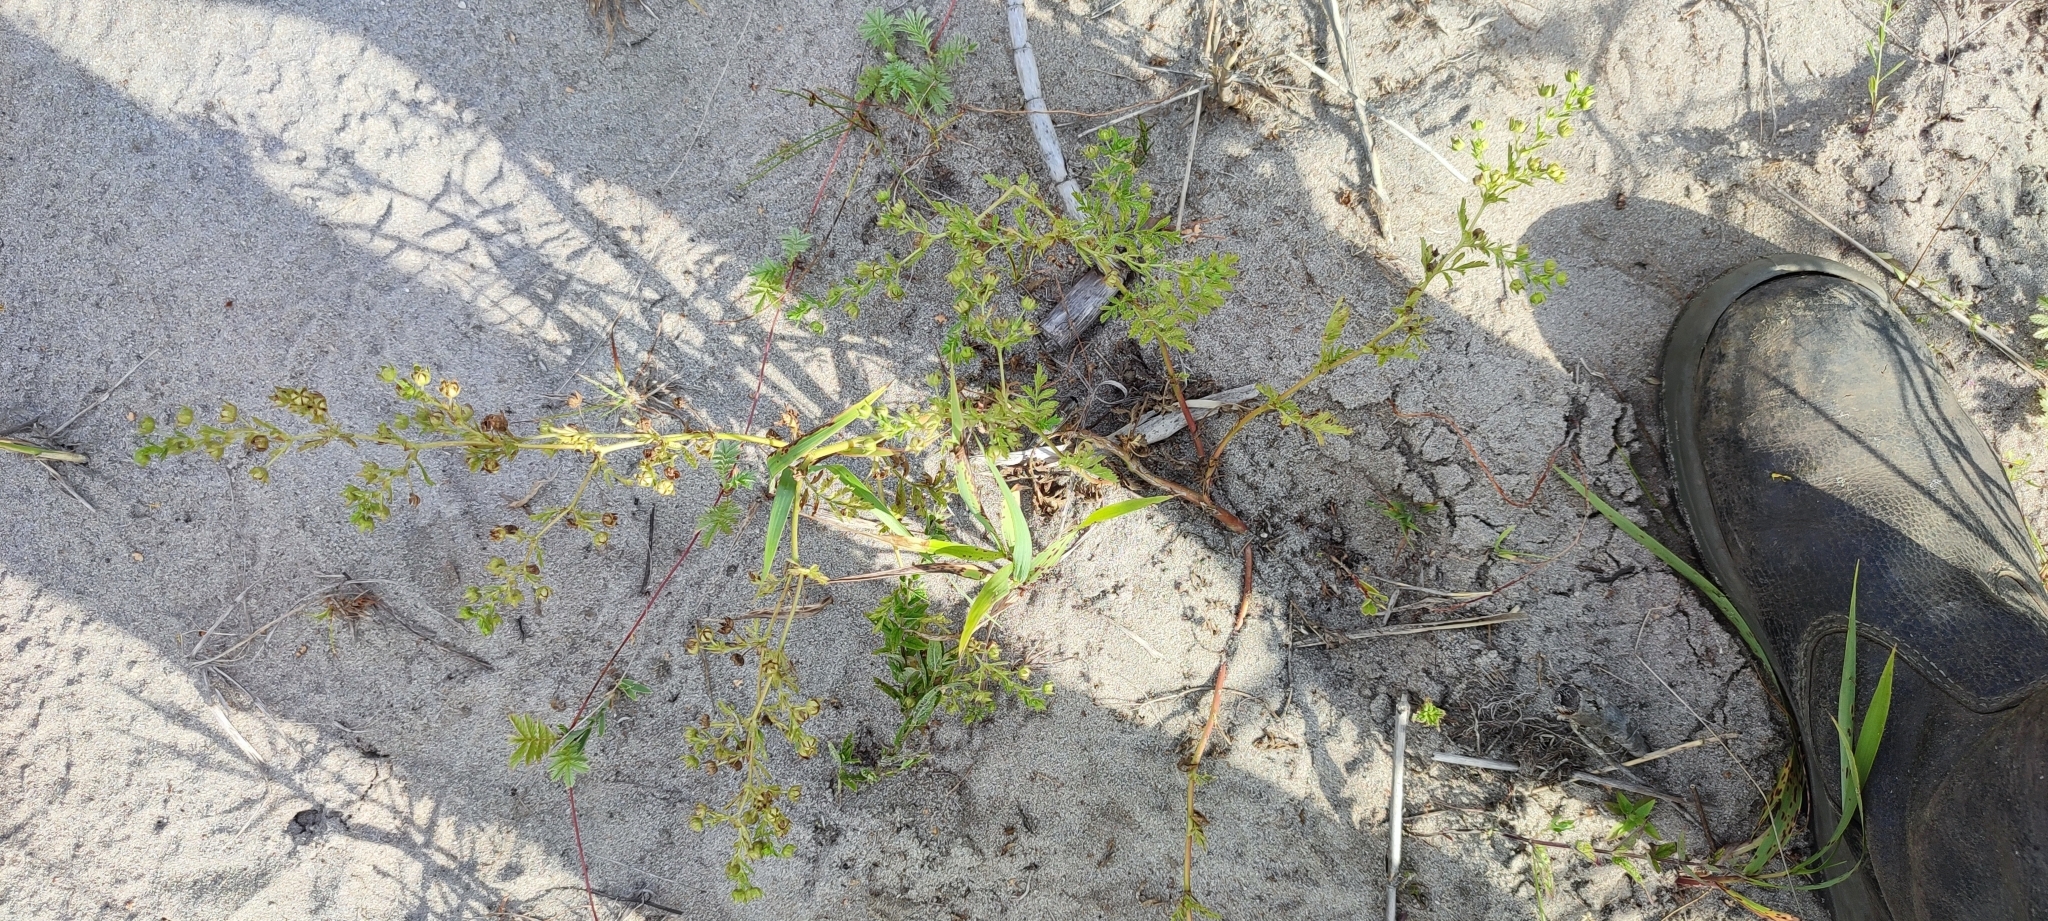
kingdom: Plantae
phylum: Tracheophyta
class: Magnoliopsida
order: Rosales
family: Rosaceae
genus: Potentilla
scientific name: Potentilla supina
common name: Prostrate cinquefoil
